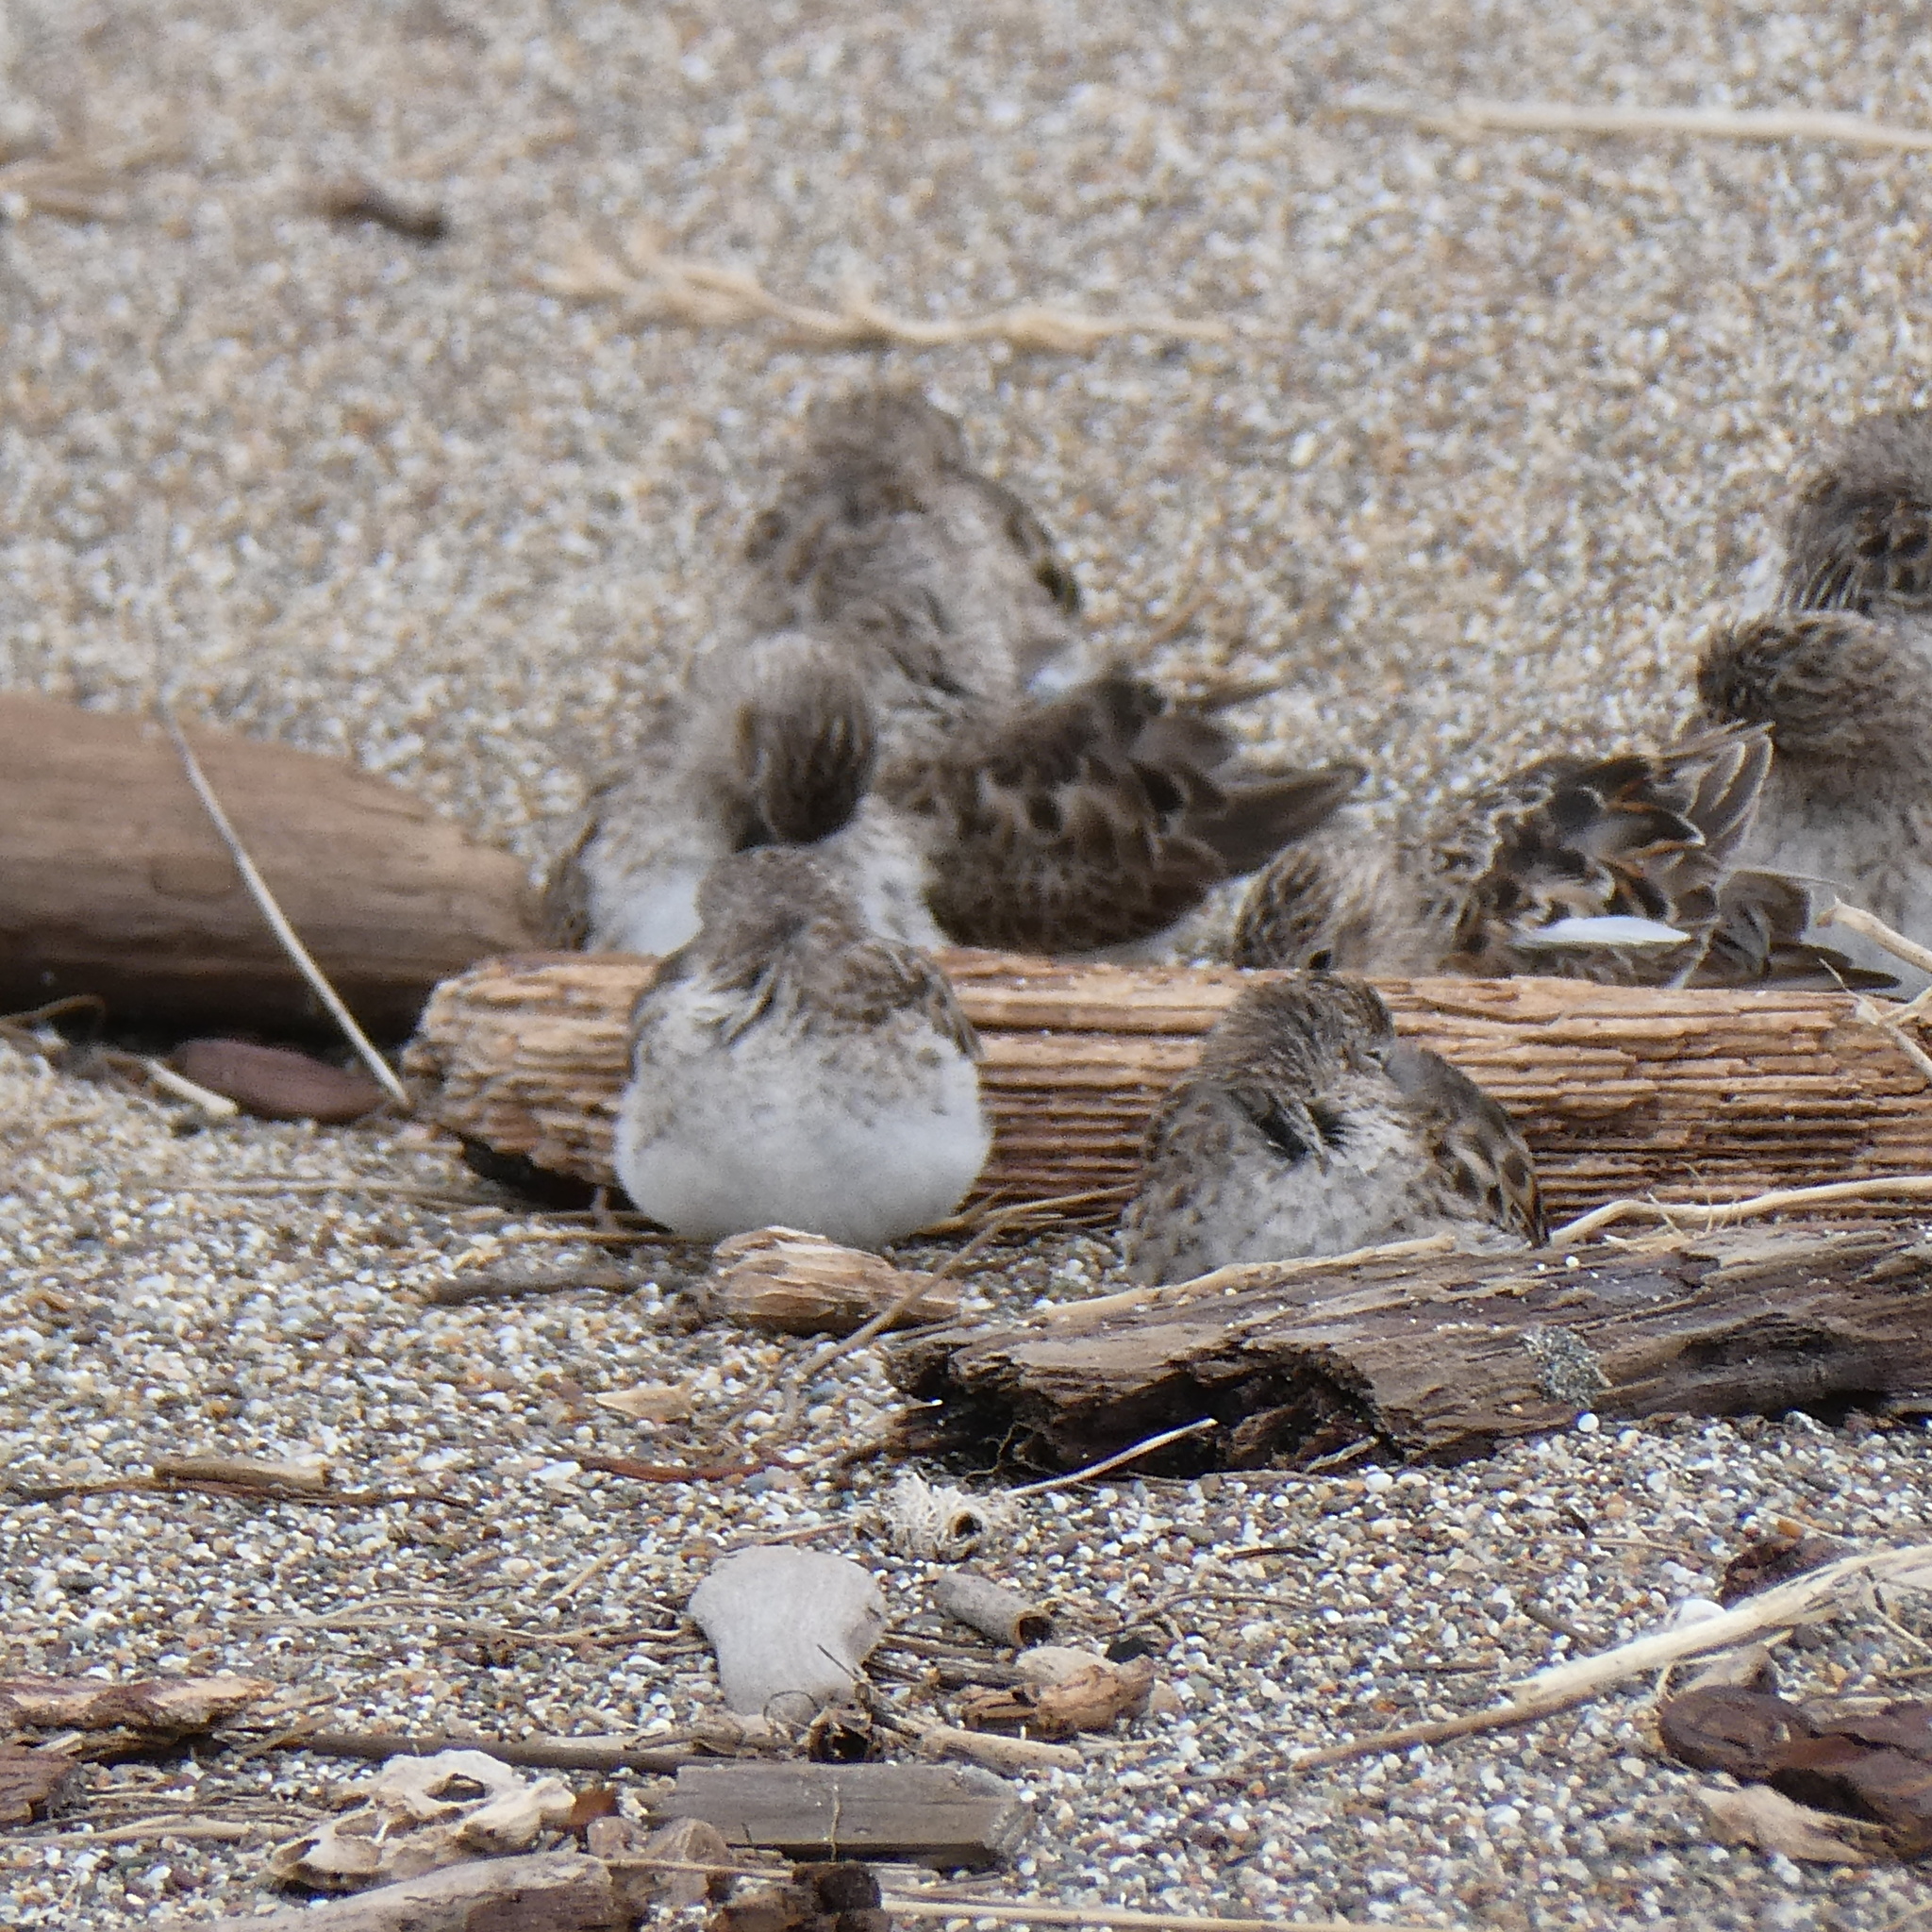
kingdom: Animalia
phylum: Chordata
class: Aves
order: Charadriiformes
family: Scolopacidae
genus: Calidris
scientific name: Calidris minutilla
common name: Least sandpiper
